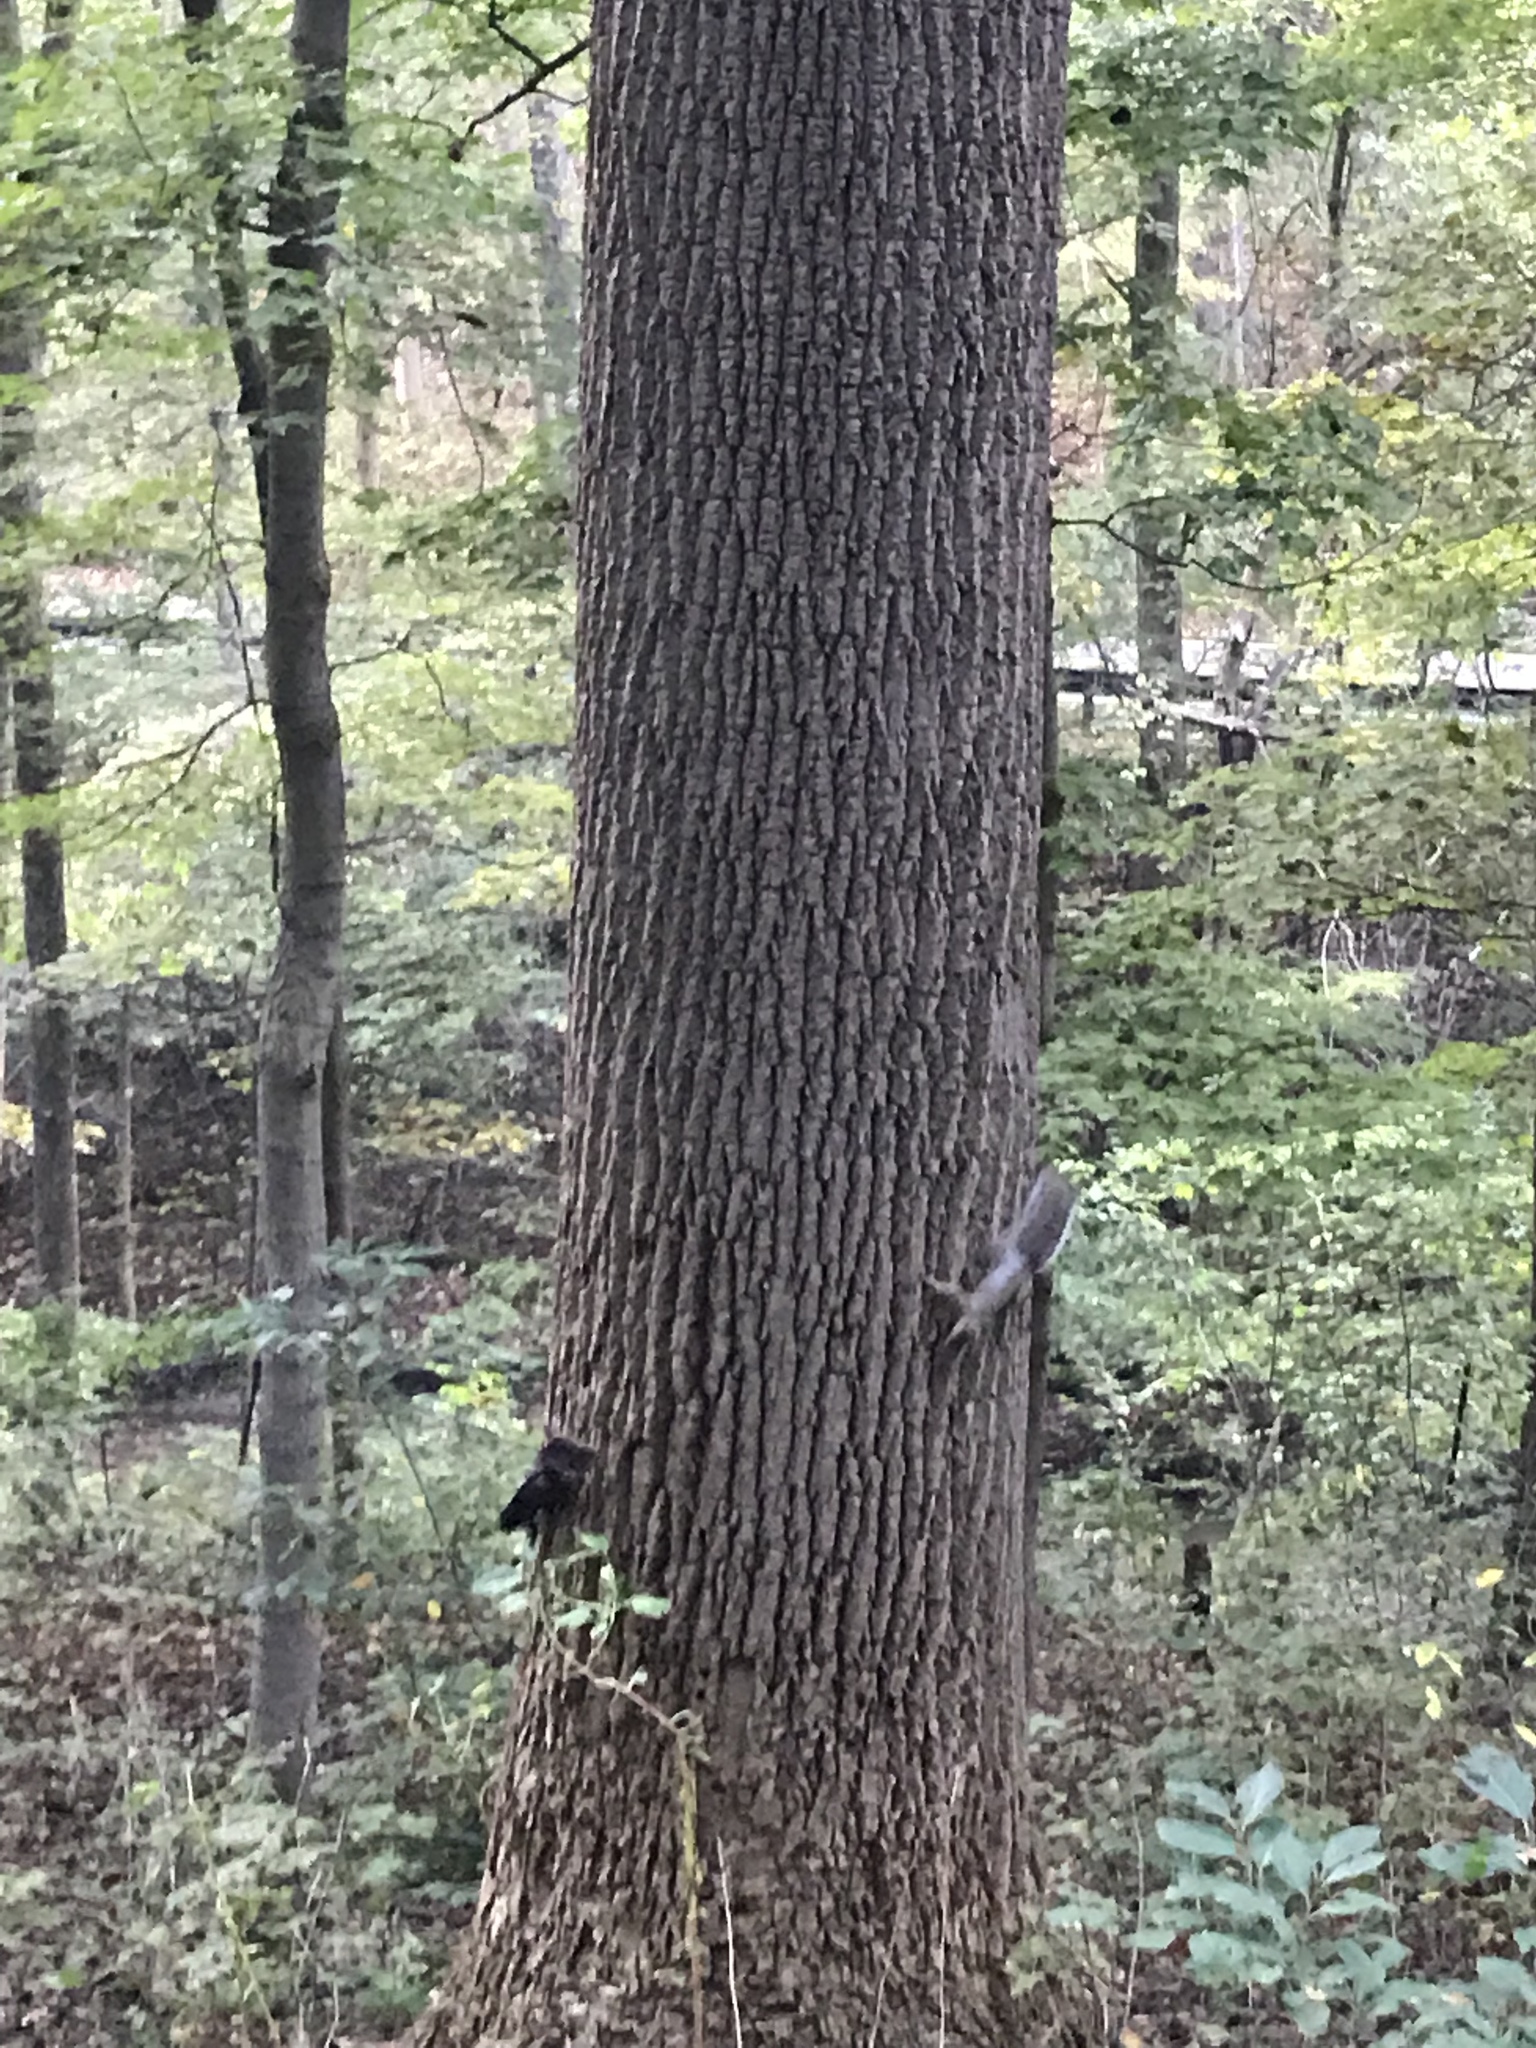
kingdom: Animalia
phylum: Chordata
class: Mammalia
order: Rodentia
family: Sciuridae
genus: Sciurus
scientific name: Sciurus carolinensis
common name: Eastern gray squirrel
